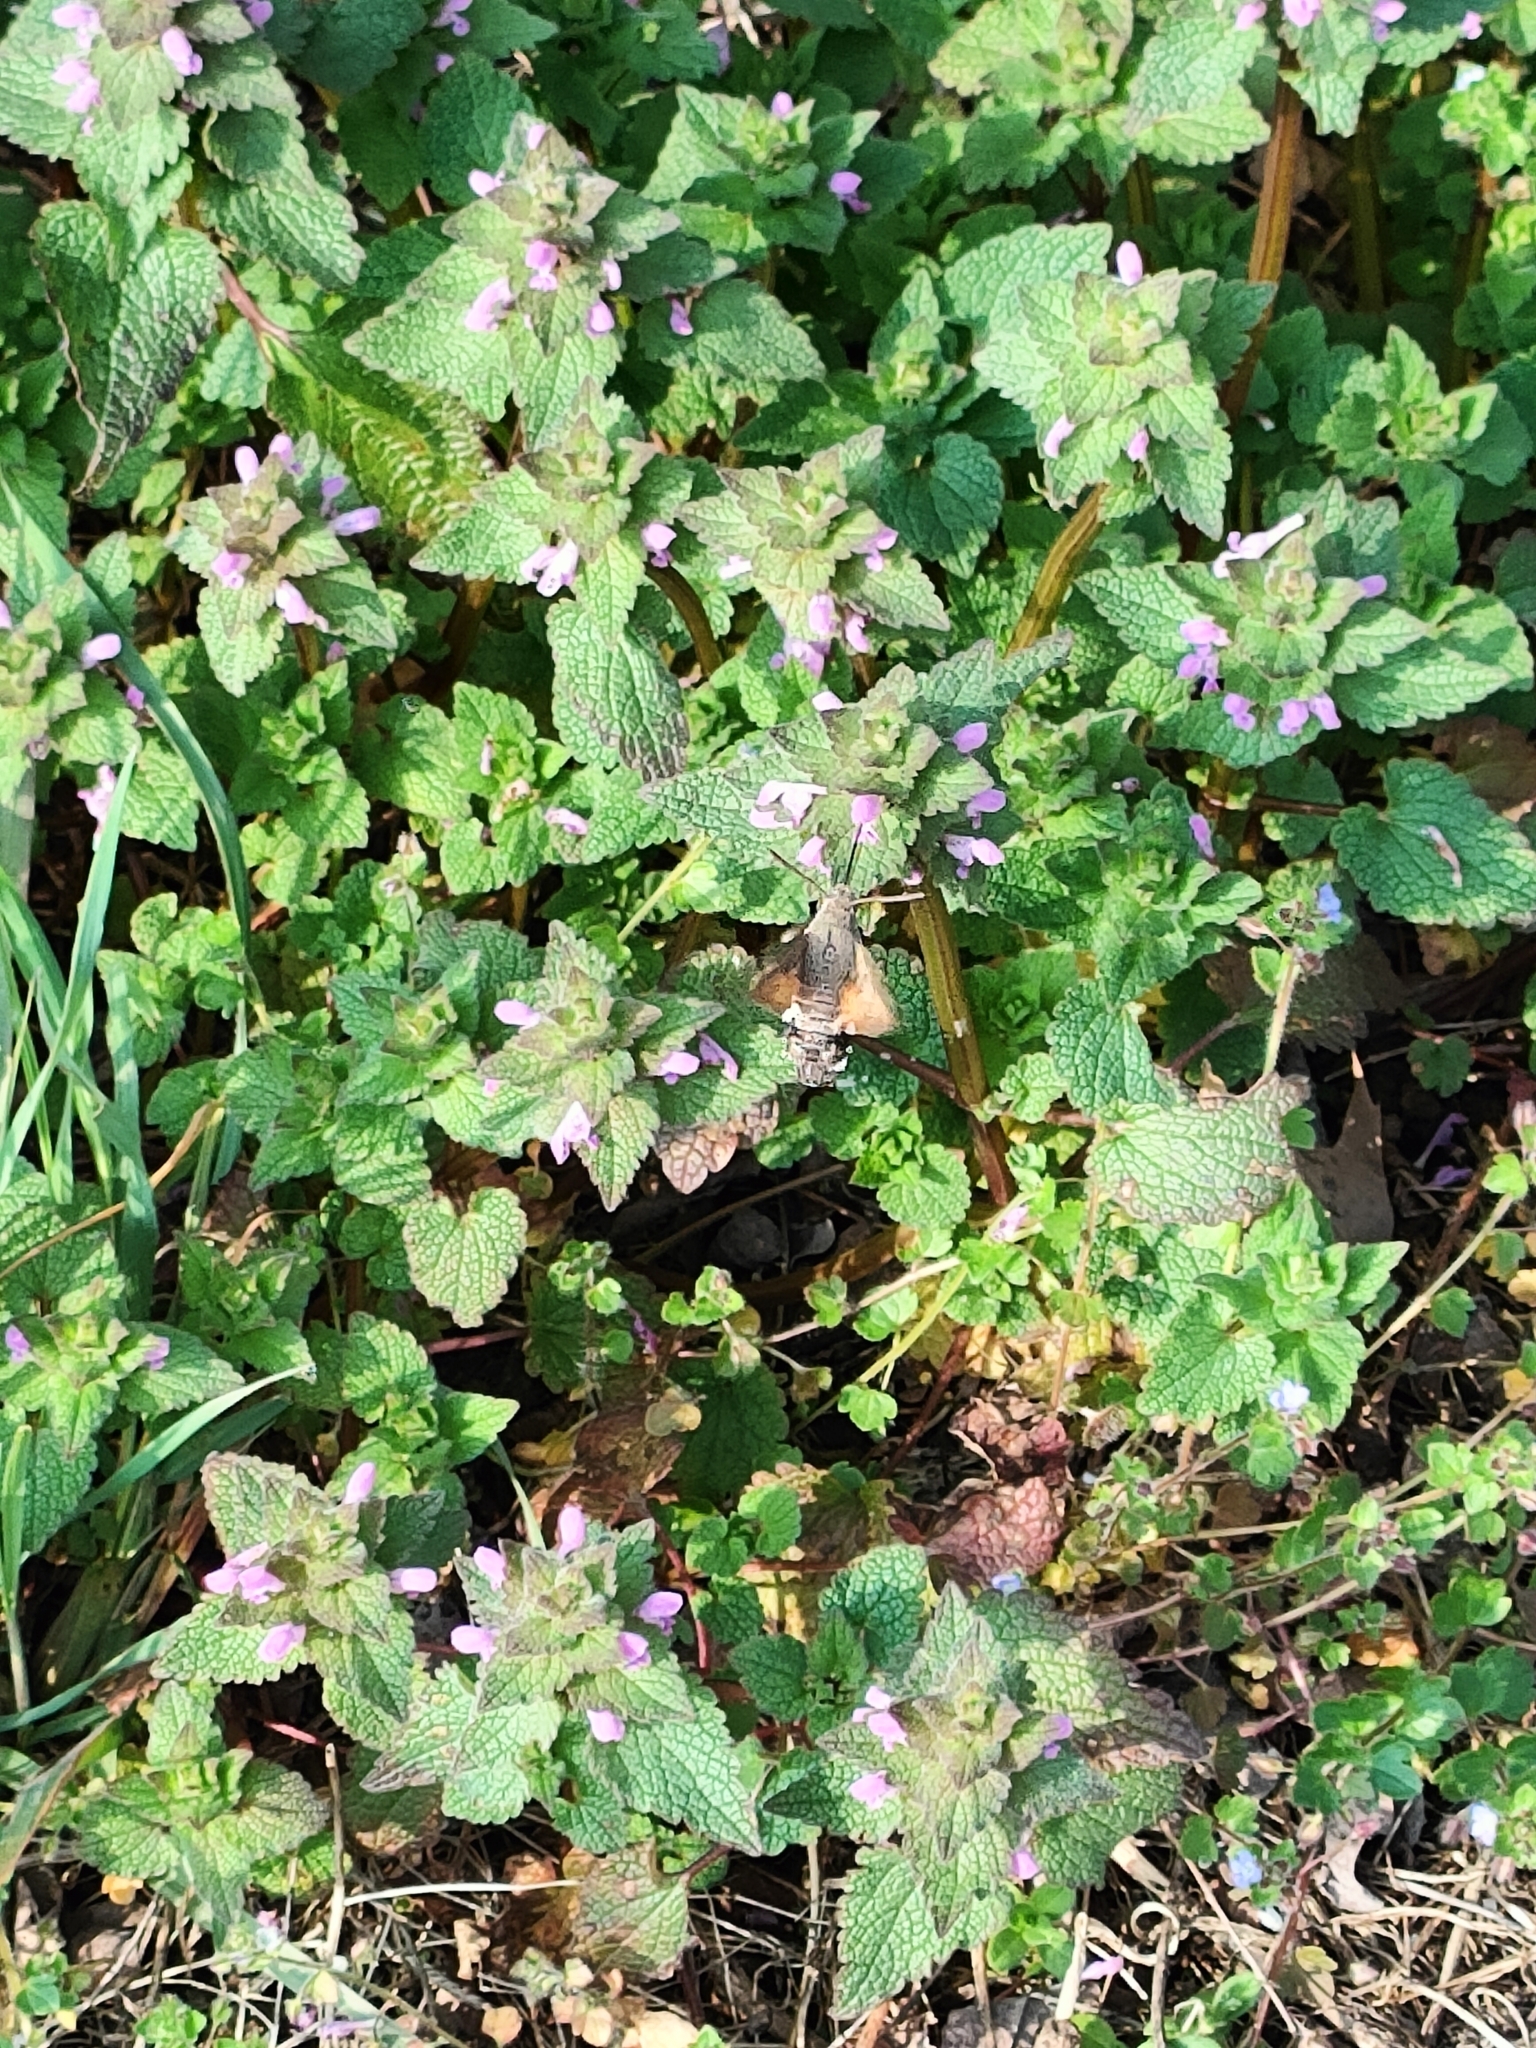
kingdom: Animalia
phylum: Arthropoda
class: Insecta
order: Lepidoptera
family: Sphingidae
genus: Macroglossum
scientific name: Macroglossum stellatarum
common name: Humming-bird hawk-moth
